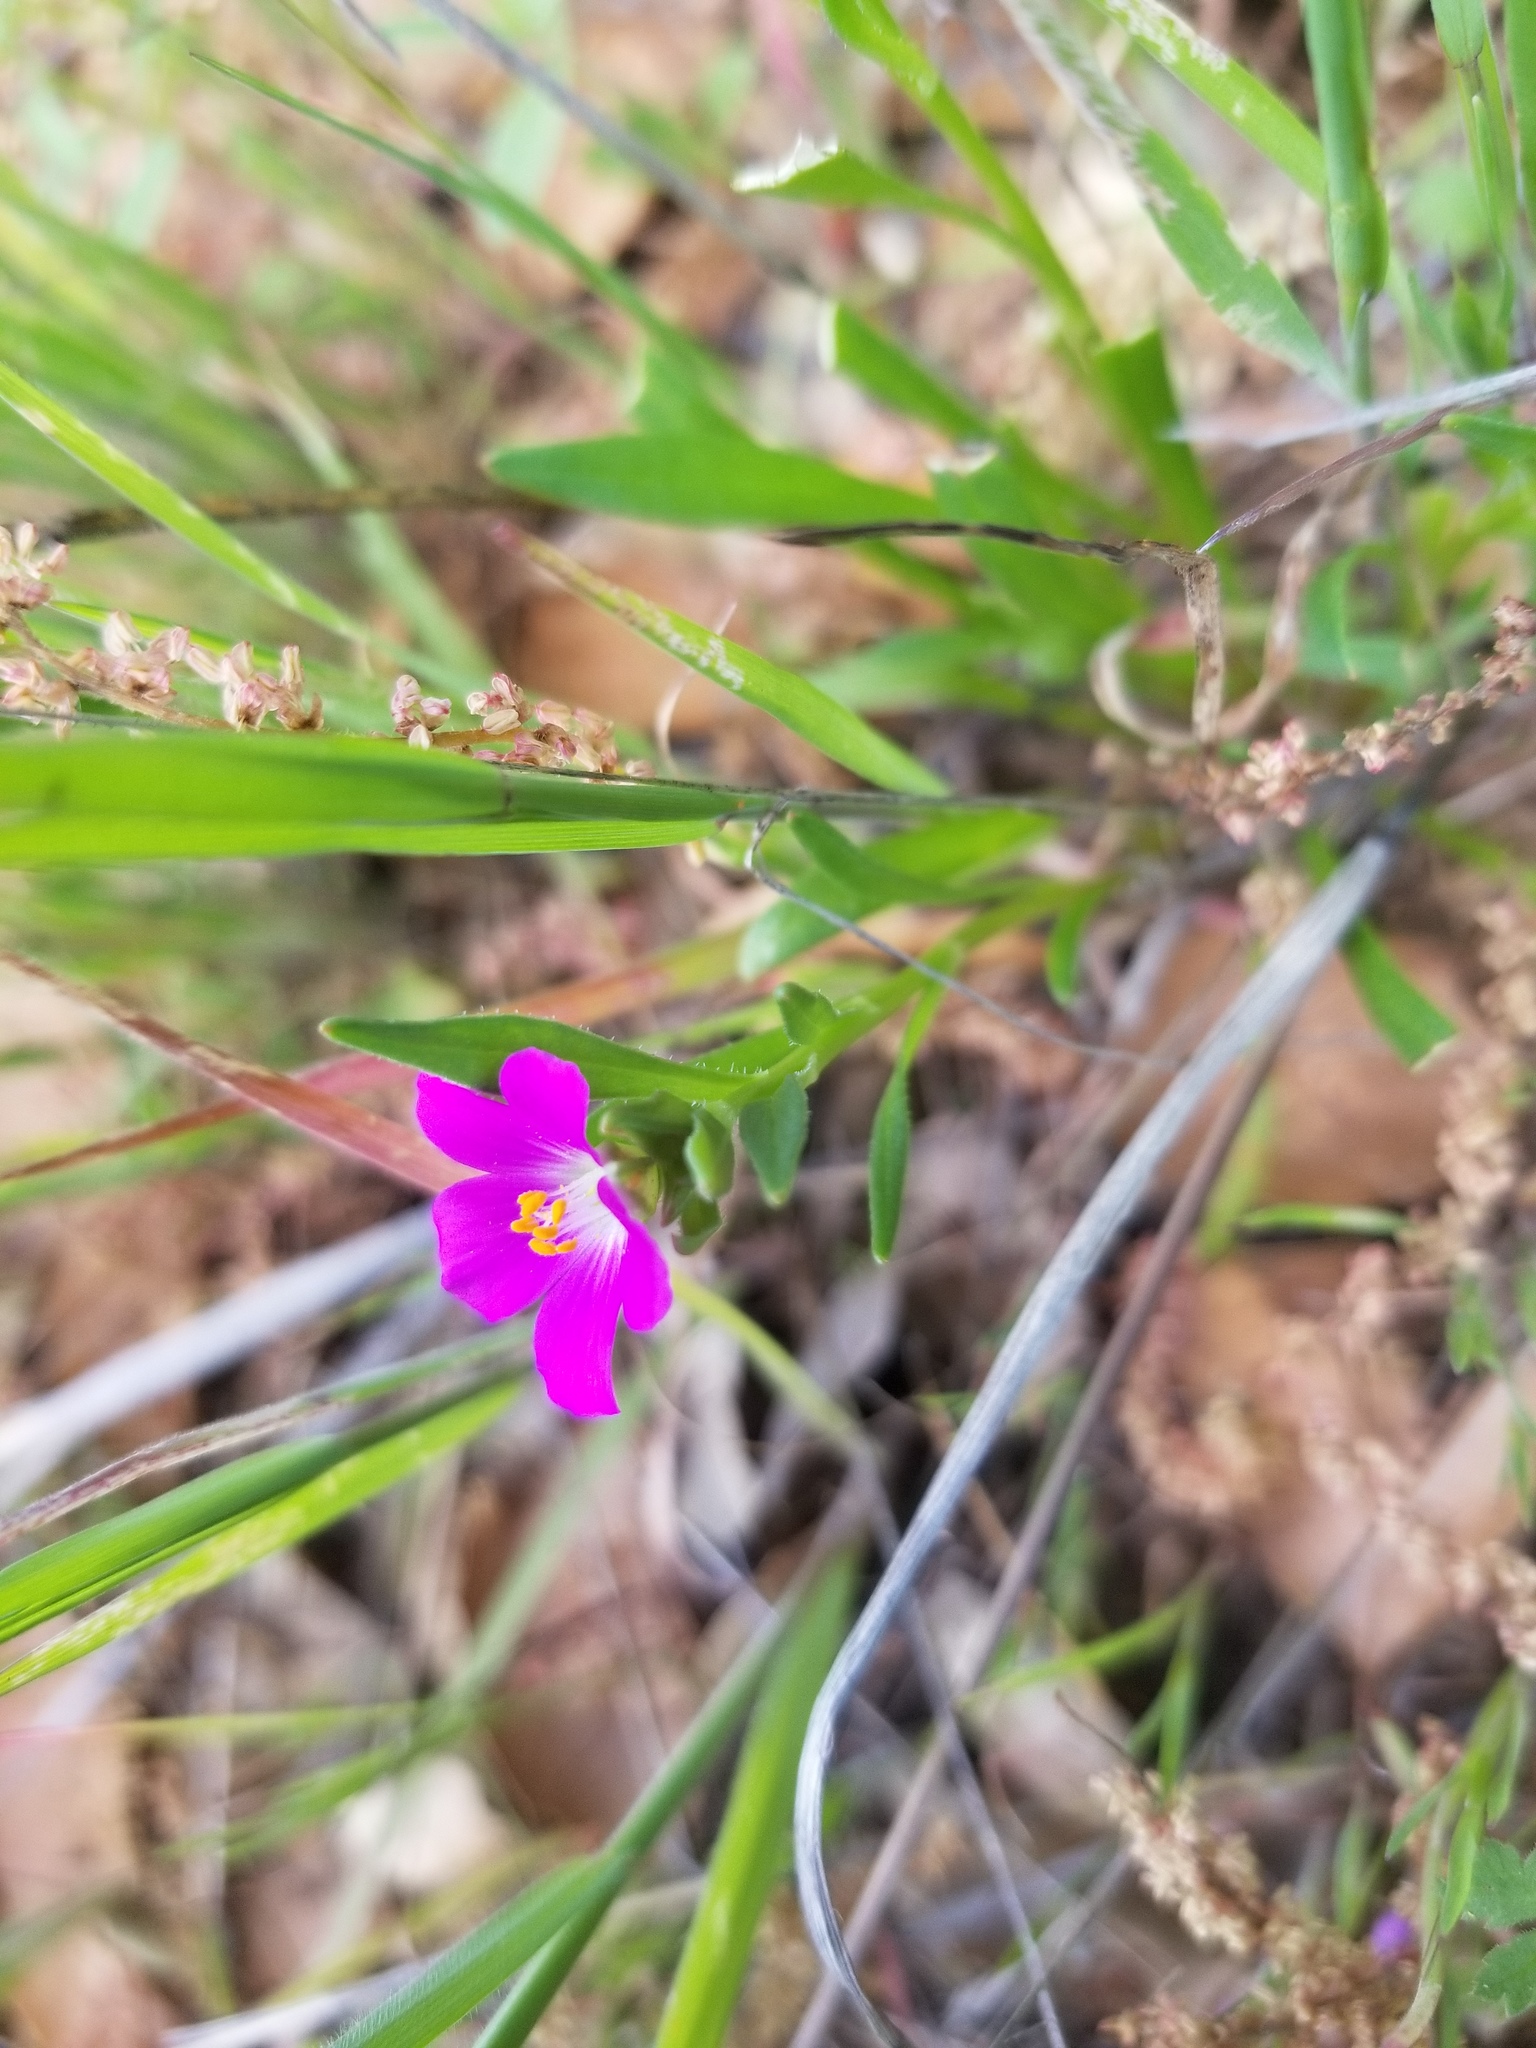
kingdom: Plantae
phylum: Tracheophyta
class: Magnoliopsida
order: Caryophyllales
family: Montiaceae
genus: Calandrinia
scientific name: Calandrinia menziesii
